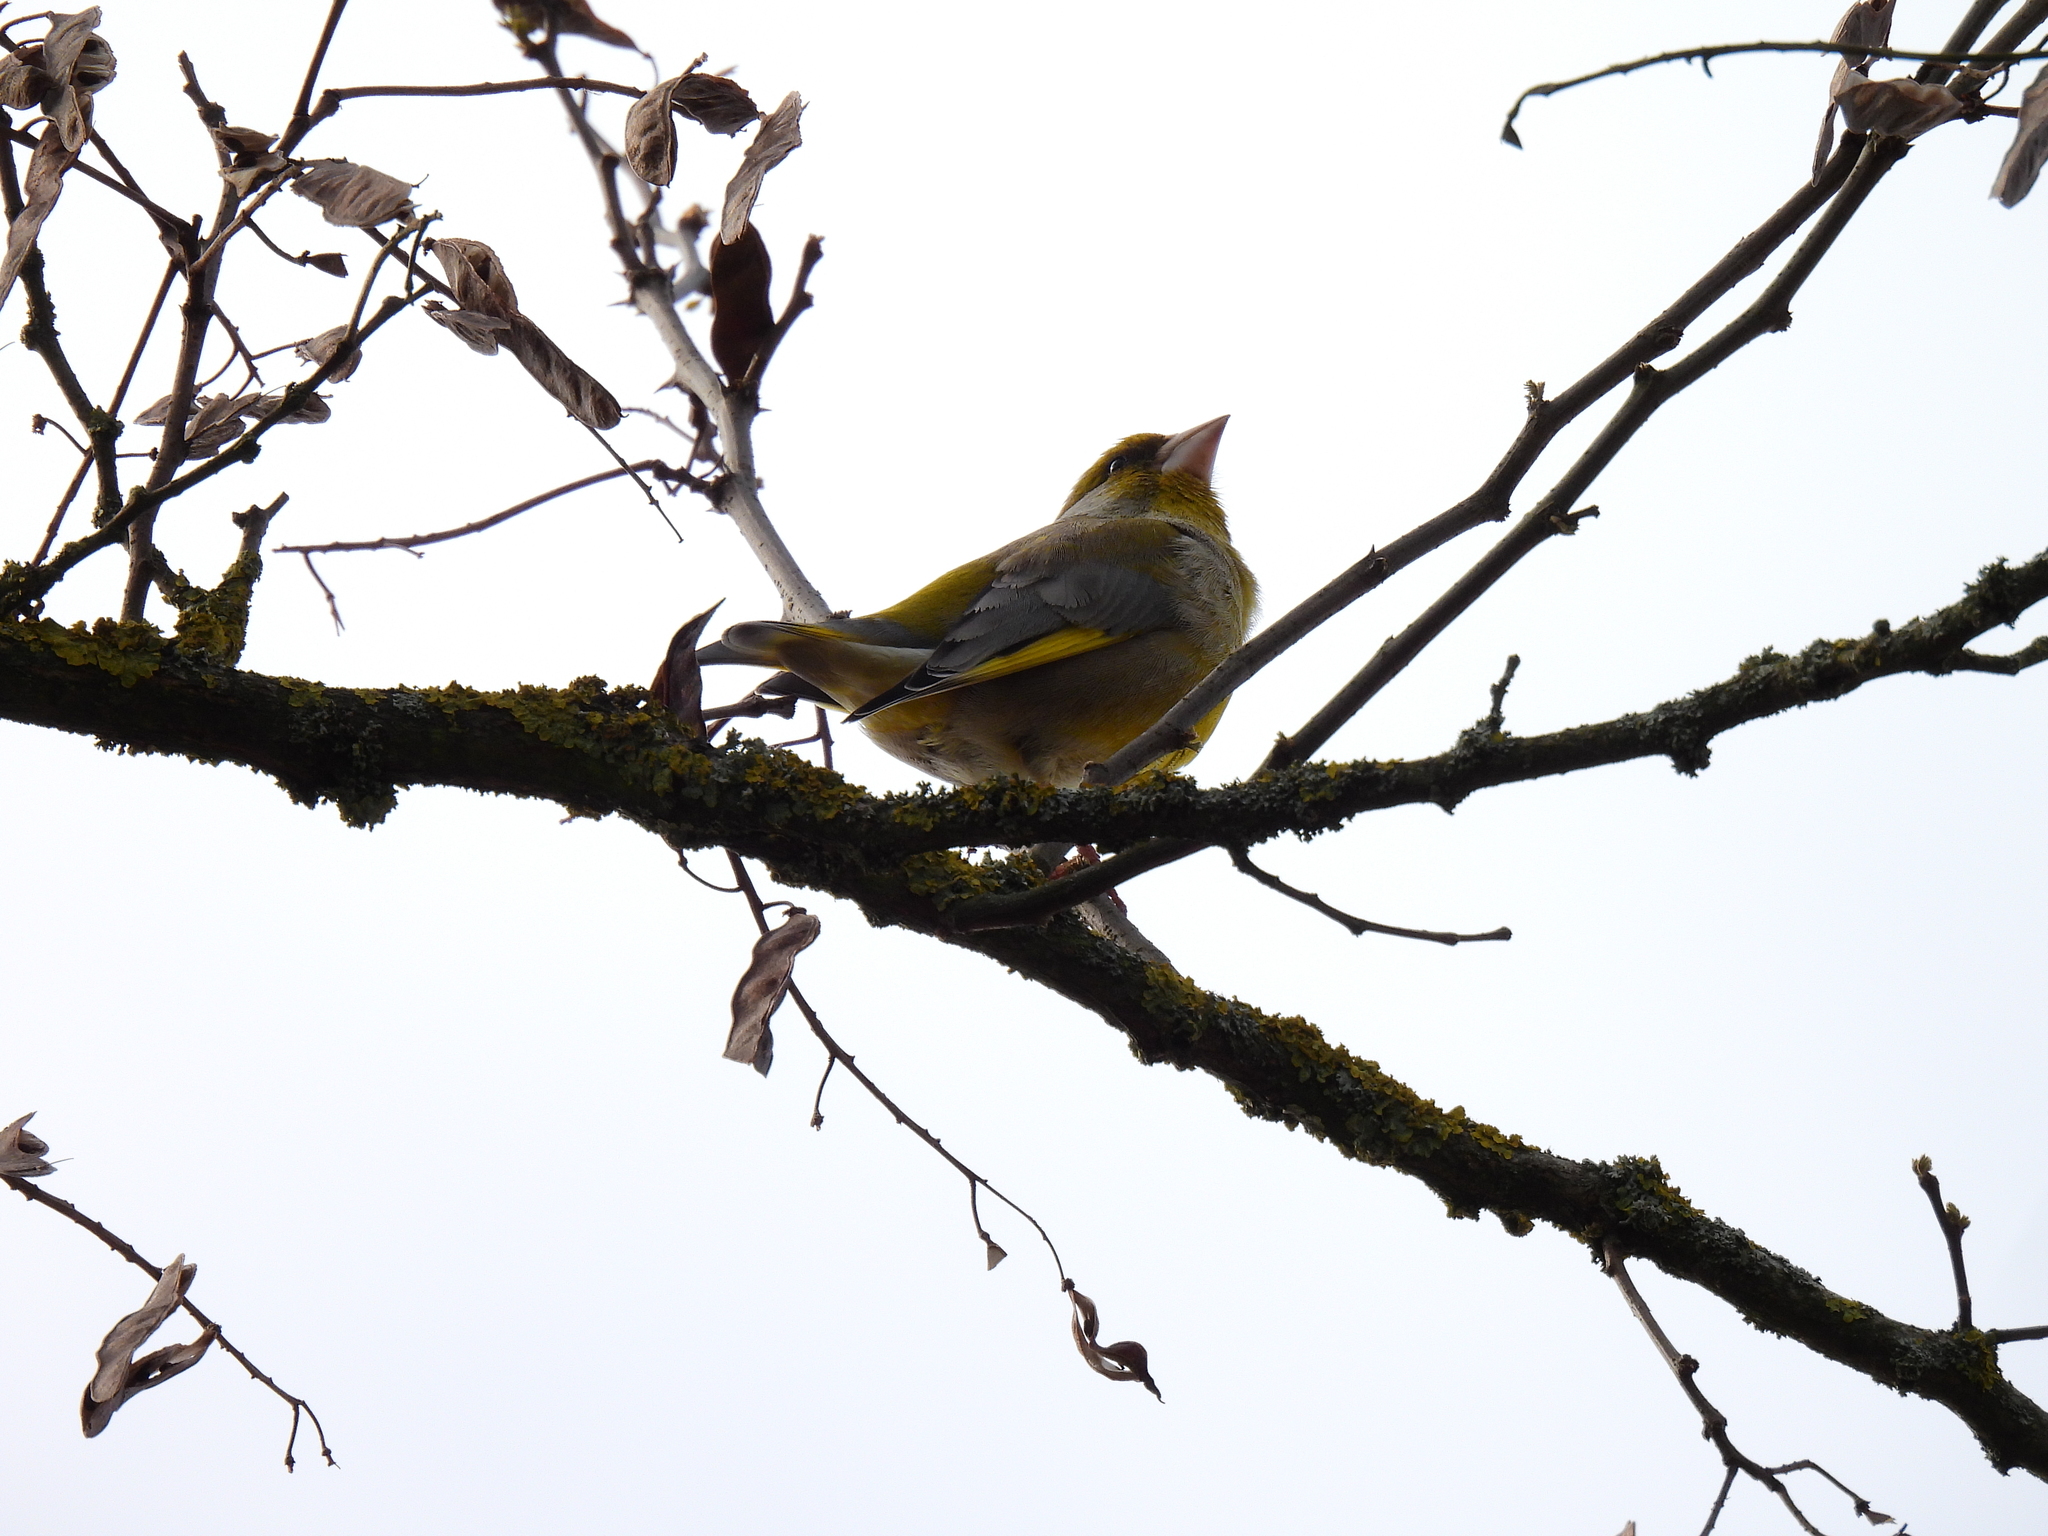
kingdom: Plantae
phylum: Tracheophyta
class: Liliopsida
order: Poales
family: Poaceae
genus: Chloris
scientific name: Chloris chloris
